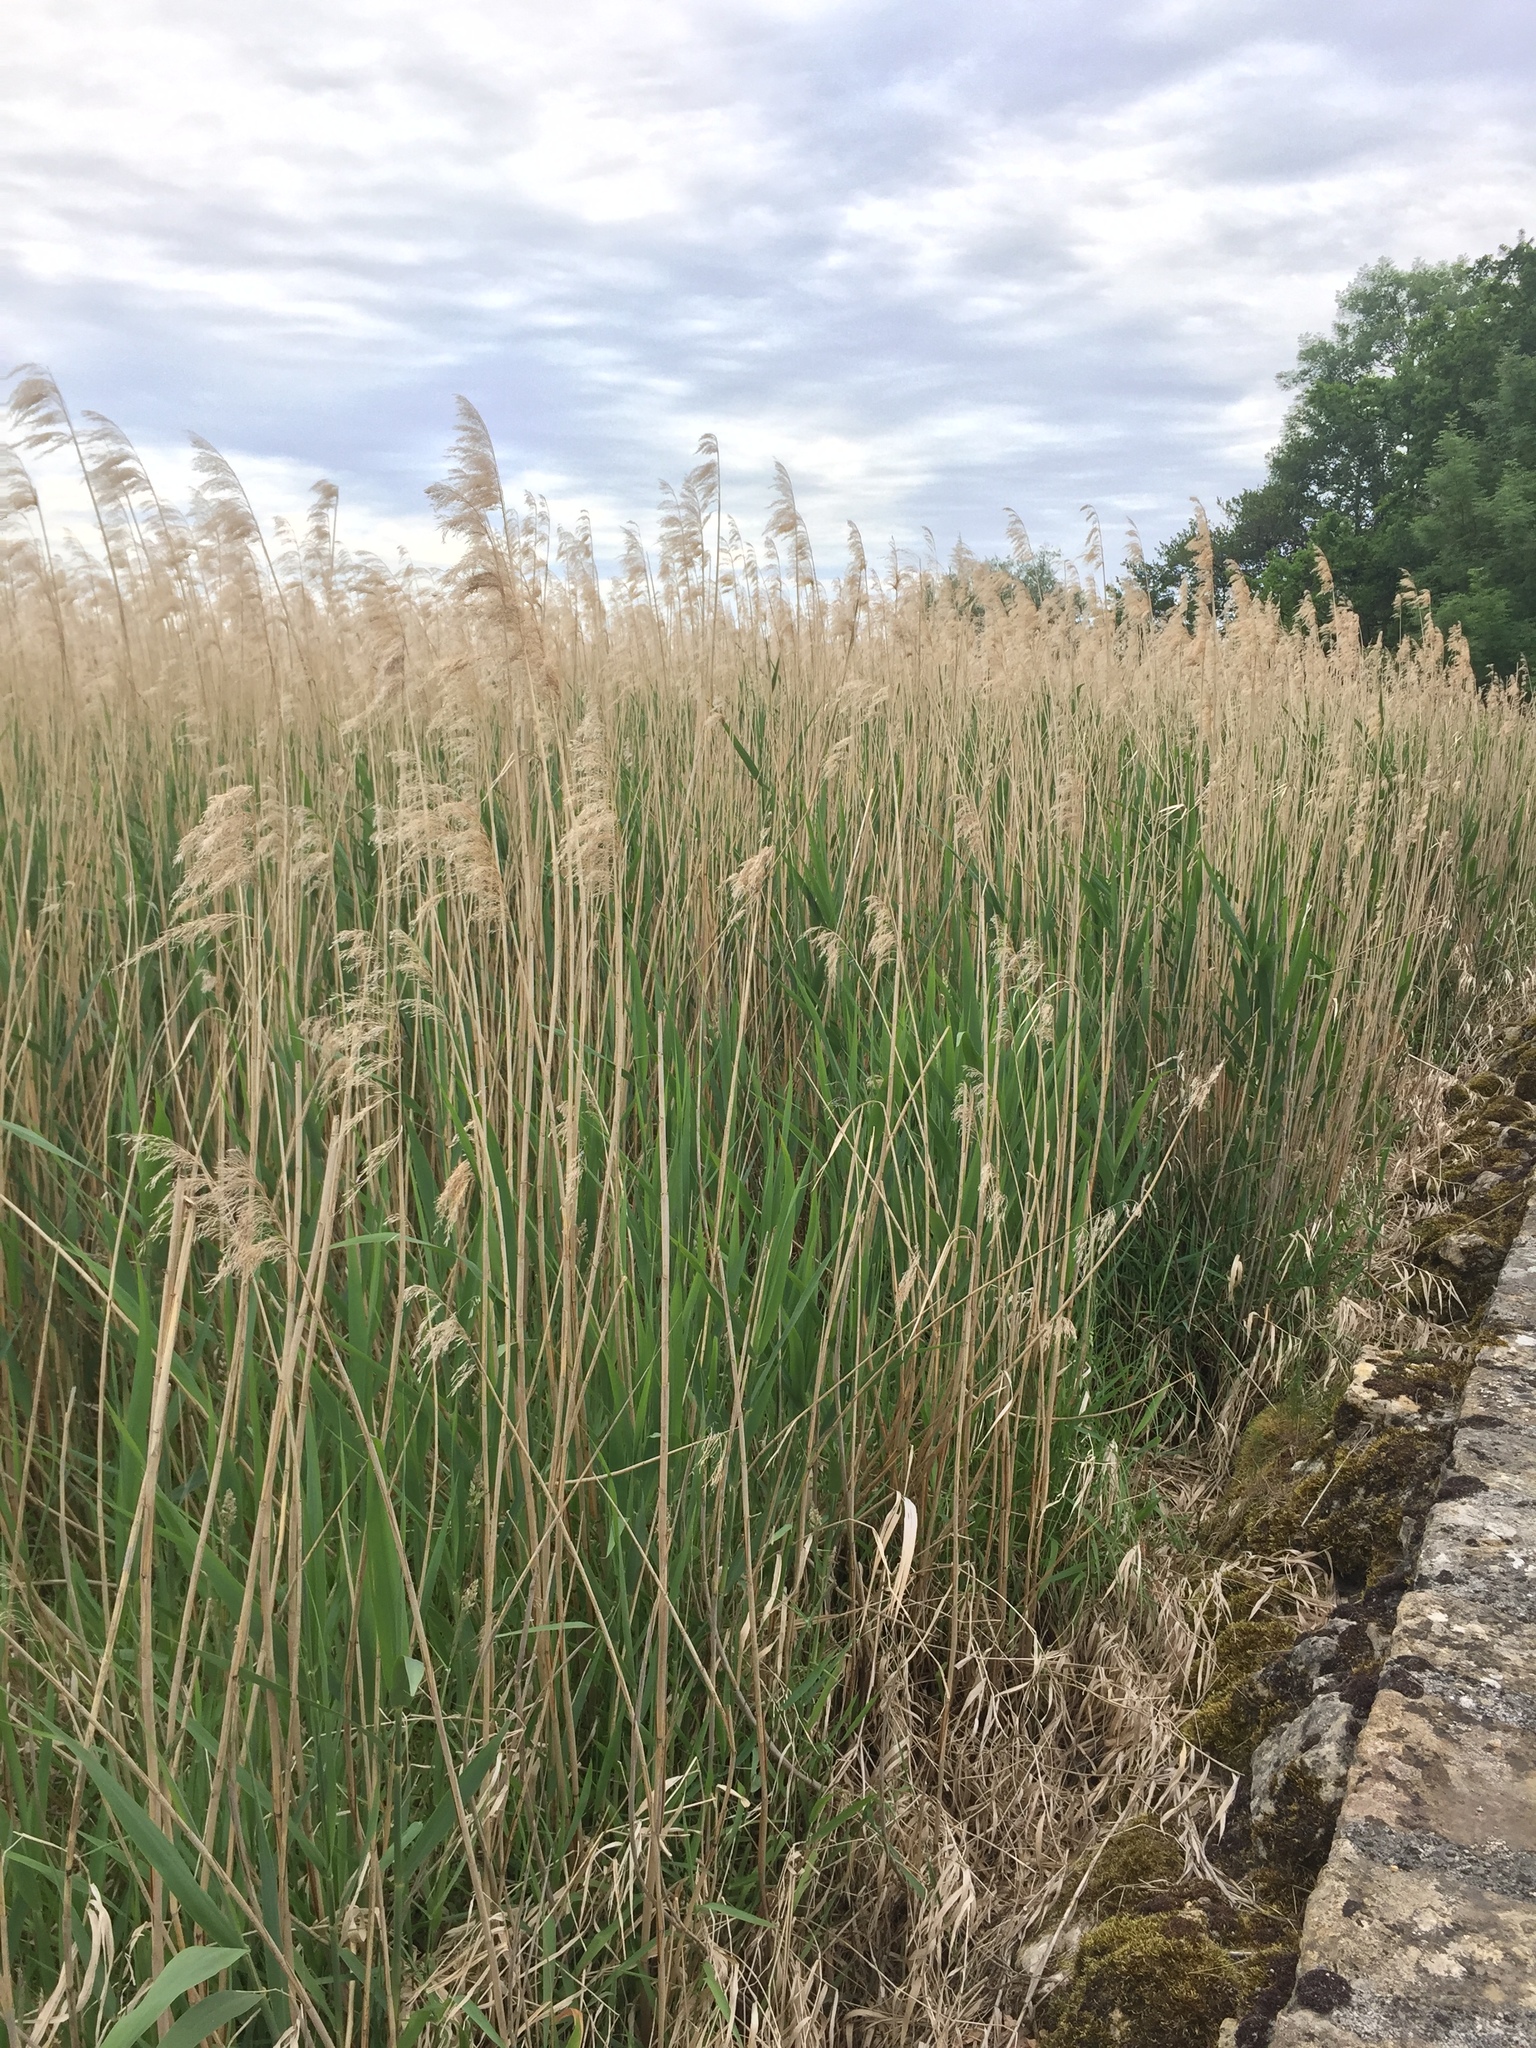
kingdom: Plantae
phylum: Tracheophyta
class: Liliopsida
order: Poales
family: Poaceae
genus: Phragmites
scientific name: Phragmites australis
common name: Common reed
